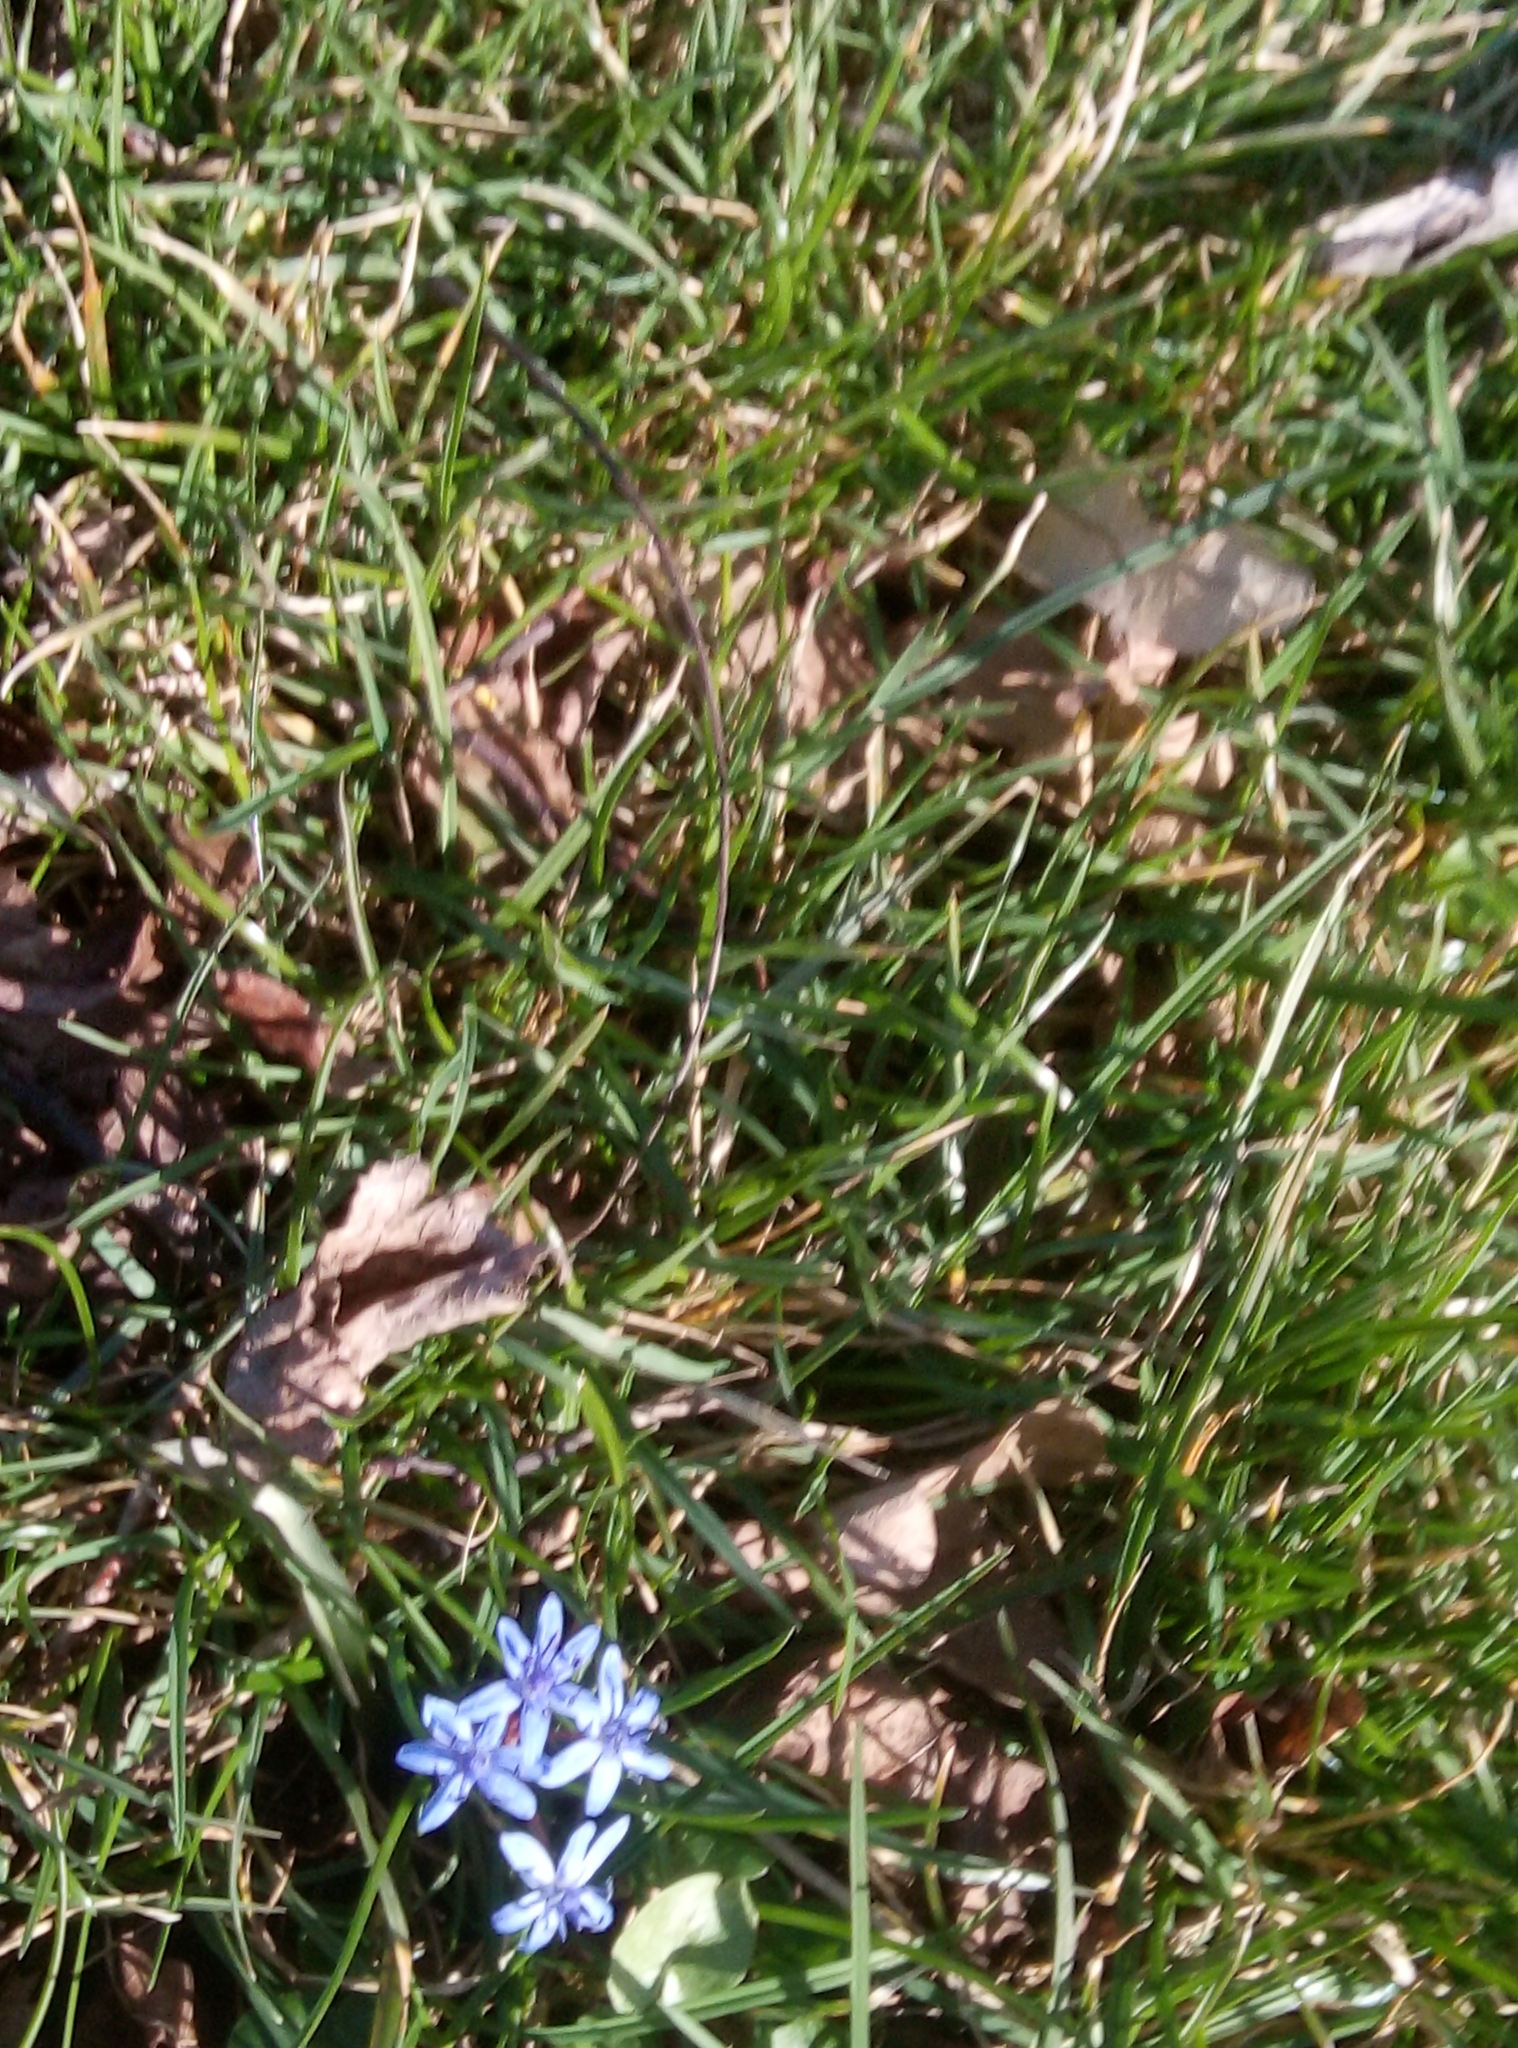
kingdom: Plantae
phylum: Tracheophyta
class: Liliopsida
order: Asparagales
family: Asparagaceae
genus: Scilla
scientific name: Scilla
